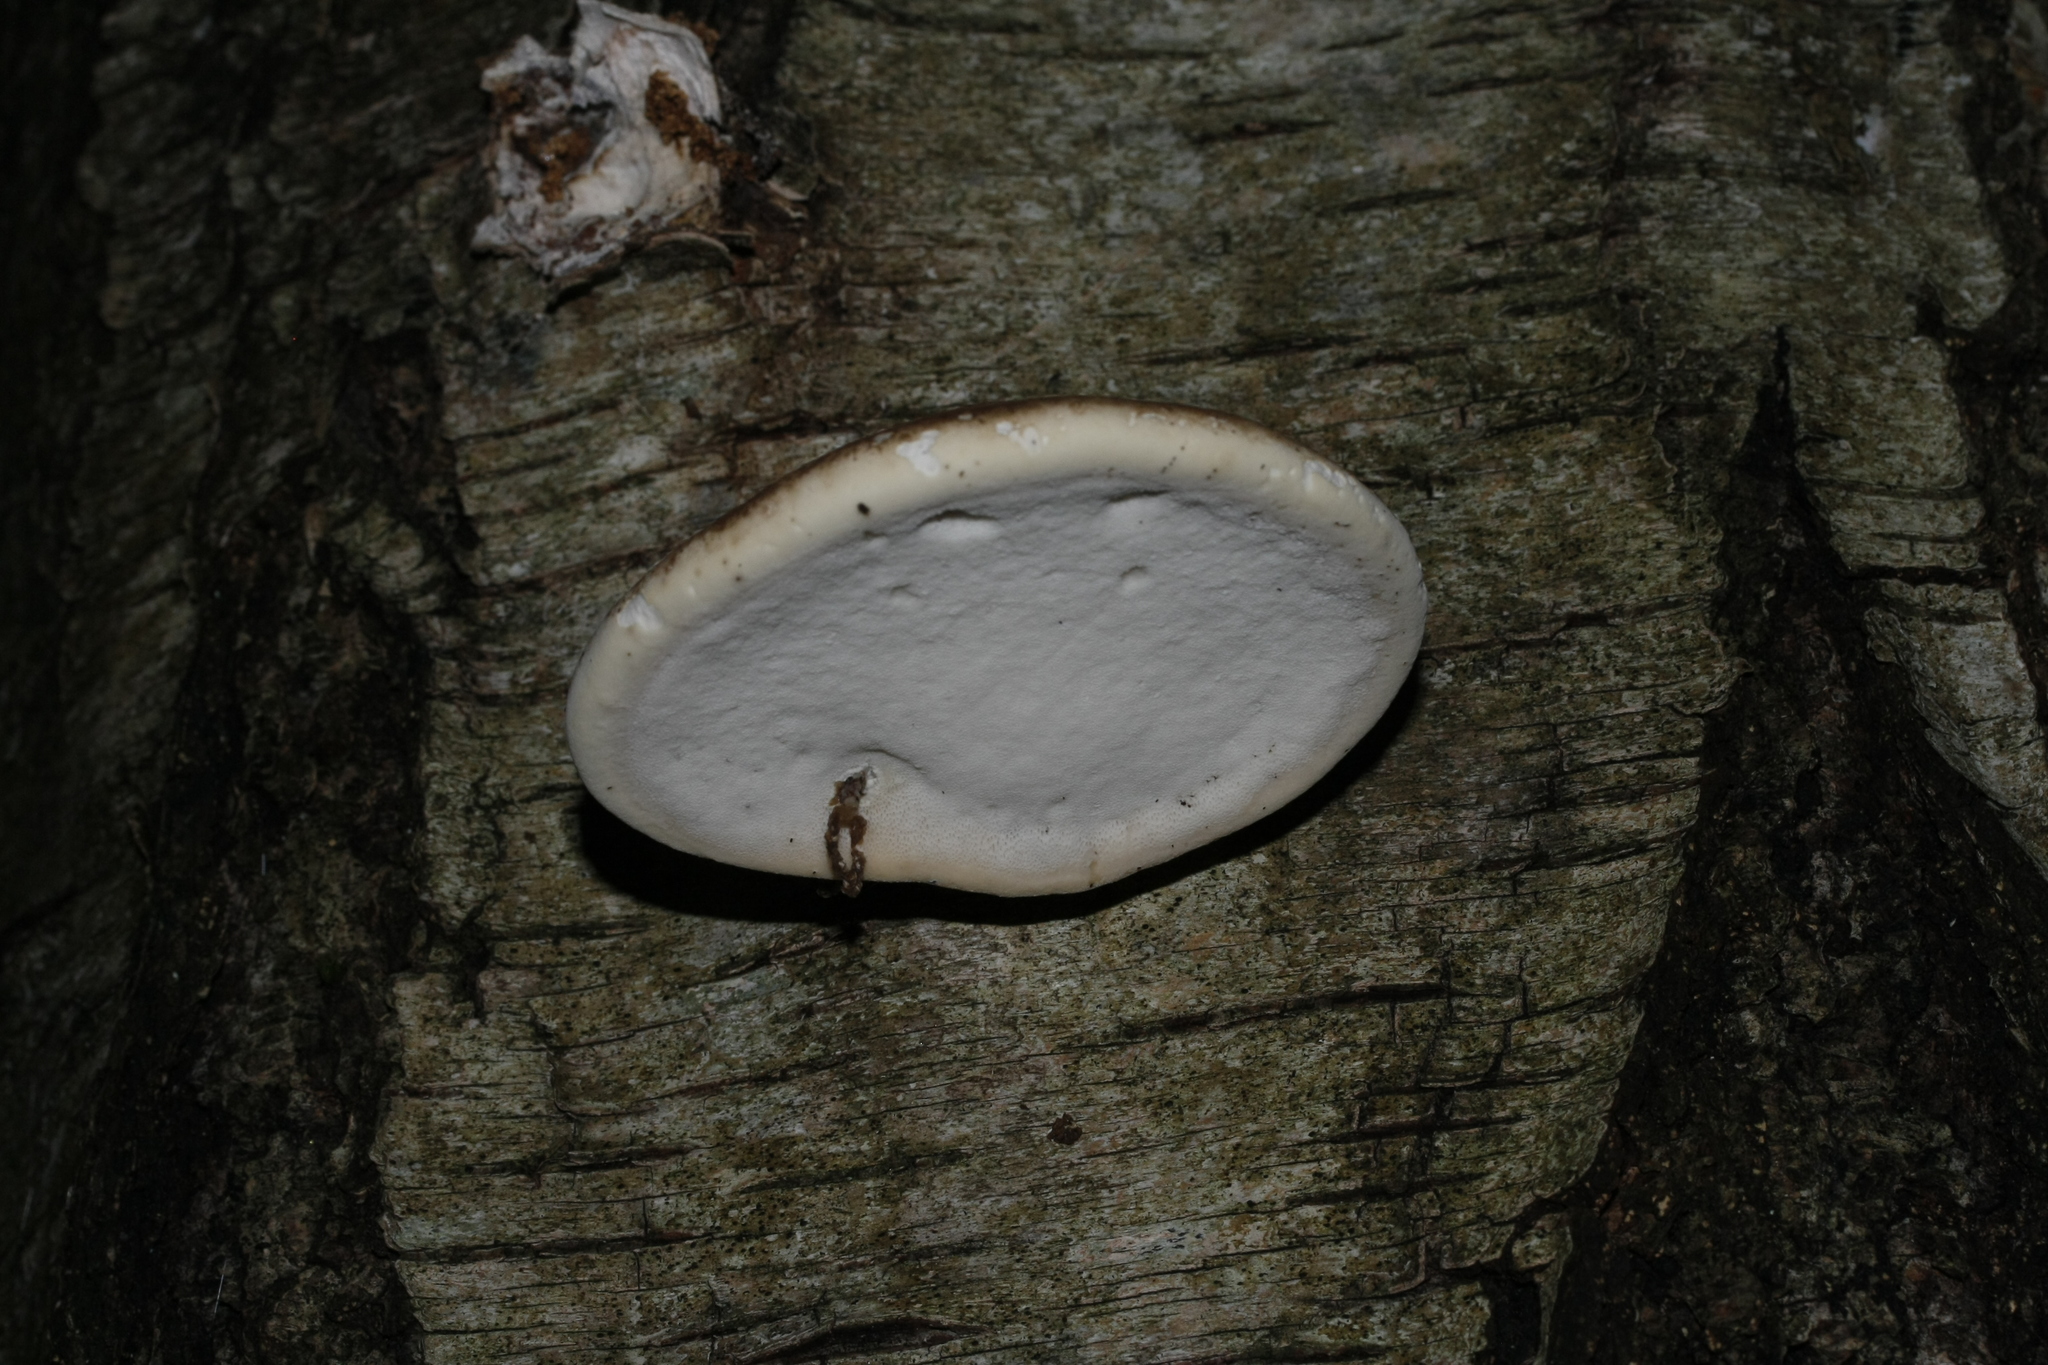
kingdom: Fungi
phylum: Basidiomycota
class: Agaricomycetes
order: Polyporales
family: Fomitopsidaceae
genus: Fomitopsis
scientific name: Fomitopsis betulina
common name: Birch polypore
